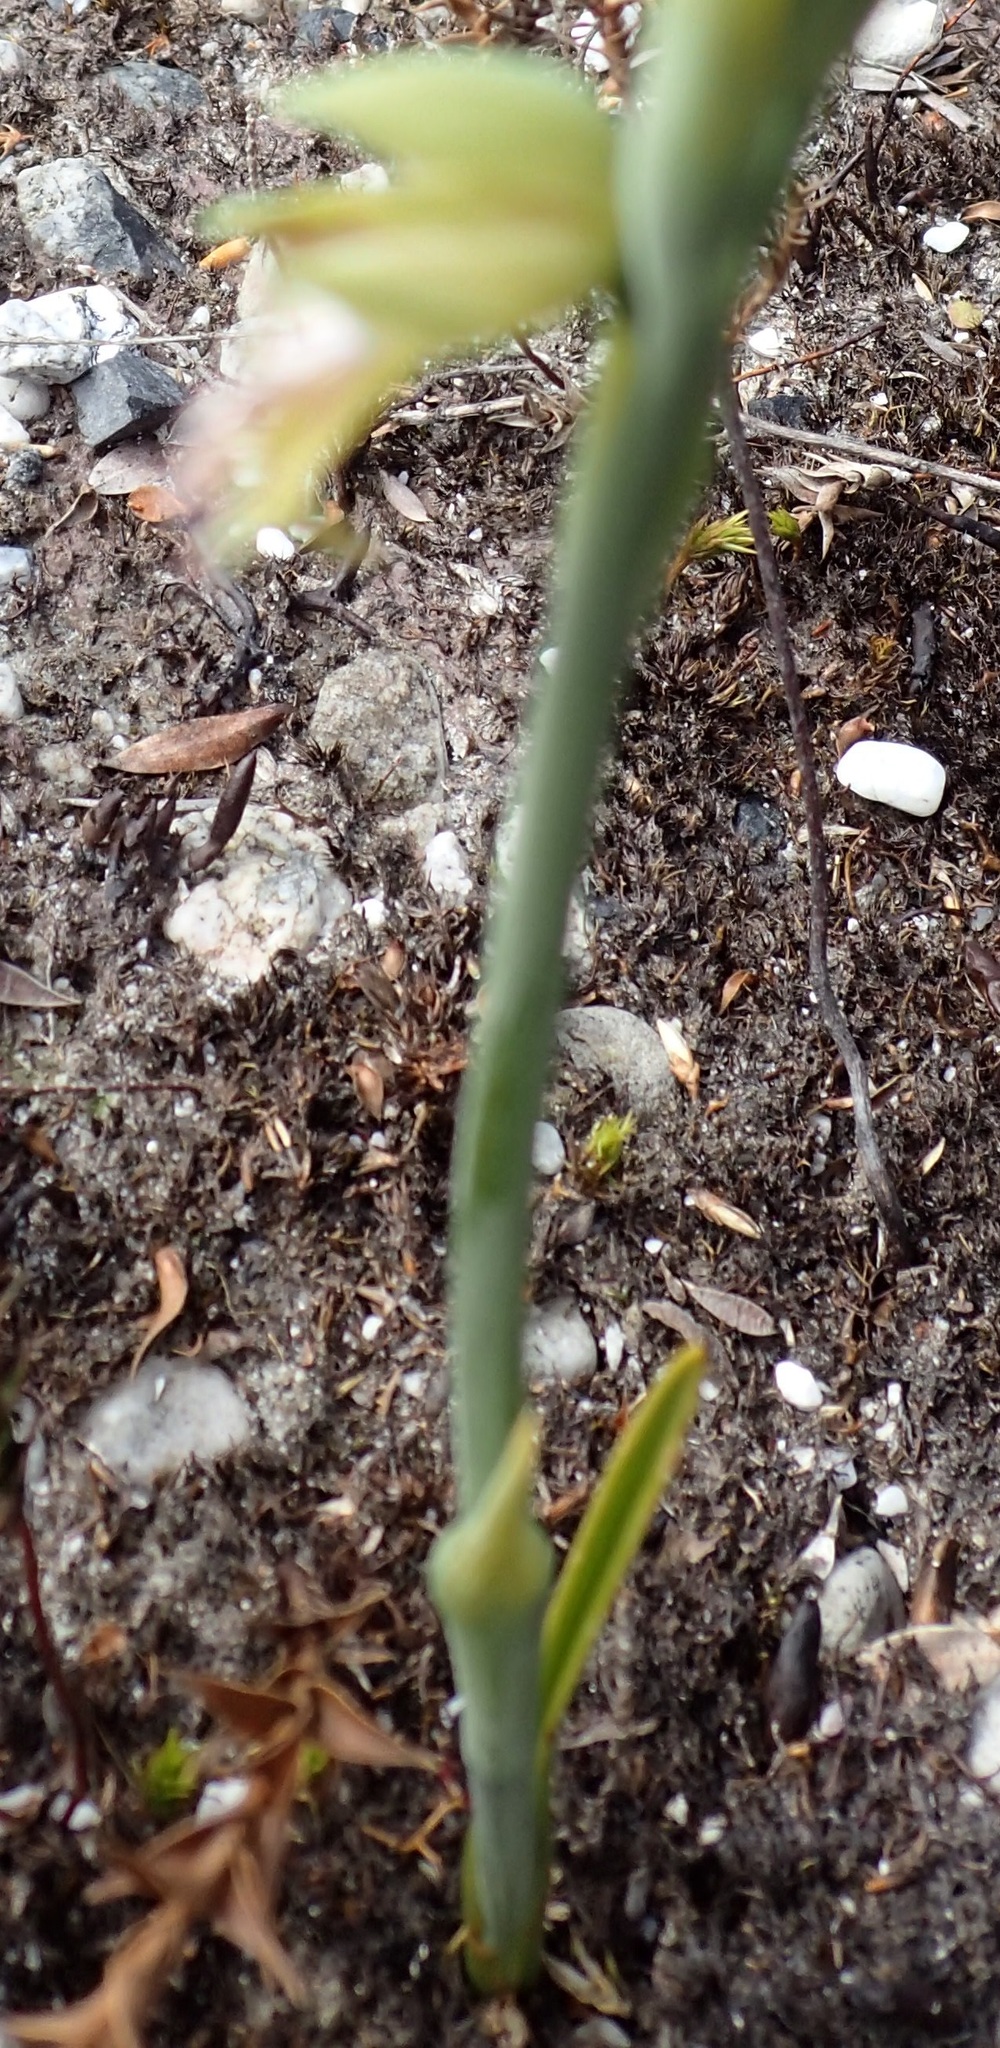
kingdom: Plantae
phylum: Tracheophyta
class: Liliopsida
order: Asparagales
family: Orchidaceae
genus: Calochilus
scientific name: Calochilus herbaceus
